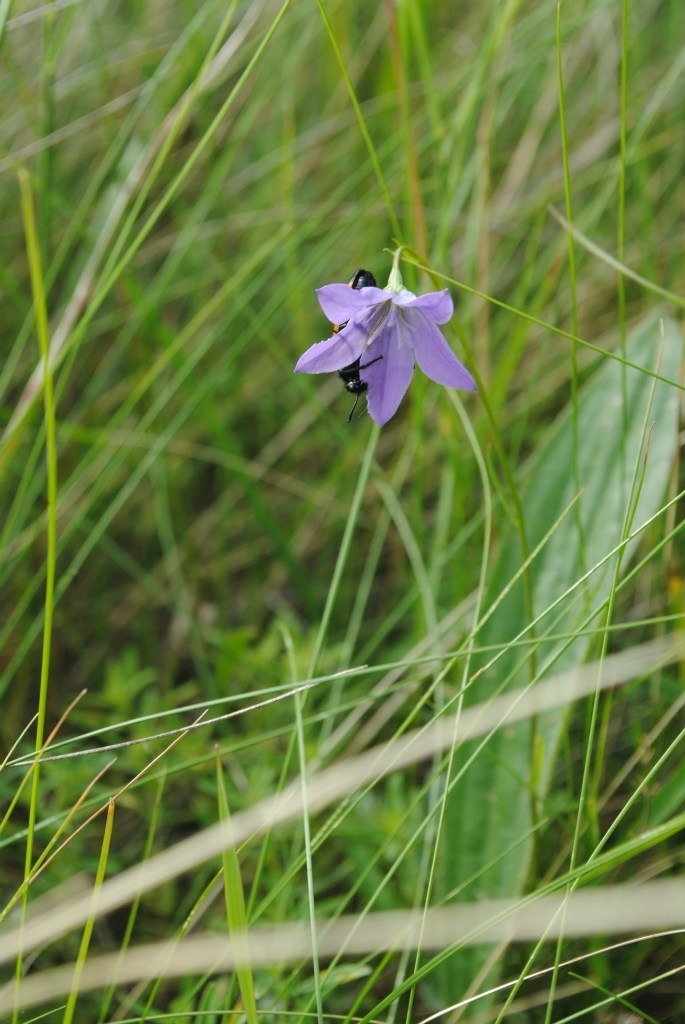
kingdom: Plantae
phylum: Tracheophyta
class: Magnoliopsida
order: Asterales
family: Campanulaceae
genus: Campanula
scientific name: Campanula stevenii
